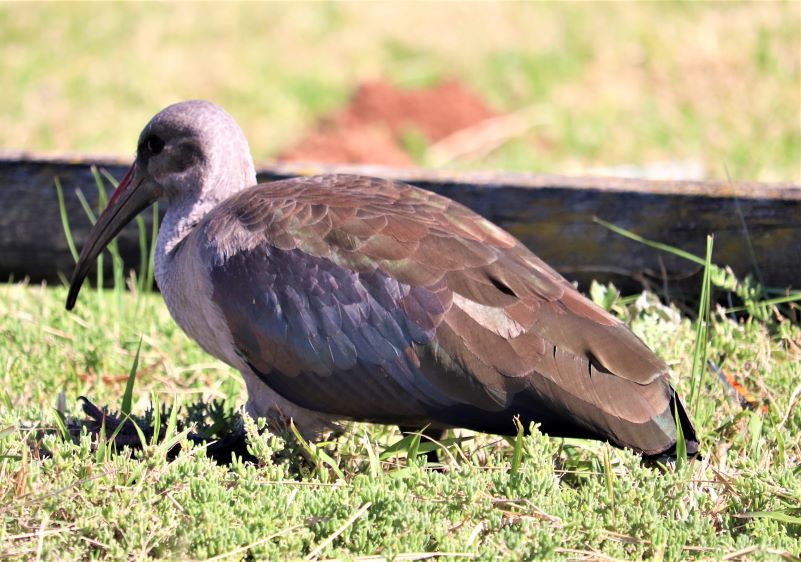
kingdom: Animalia
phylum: Chordata
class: Aves
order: Pelecaniformes
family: Threskiornithidae
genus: Bostrychia
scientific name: Bostrychia hagedash
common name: Hadada ibis
